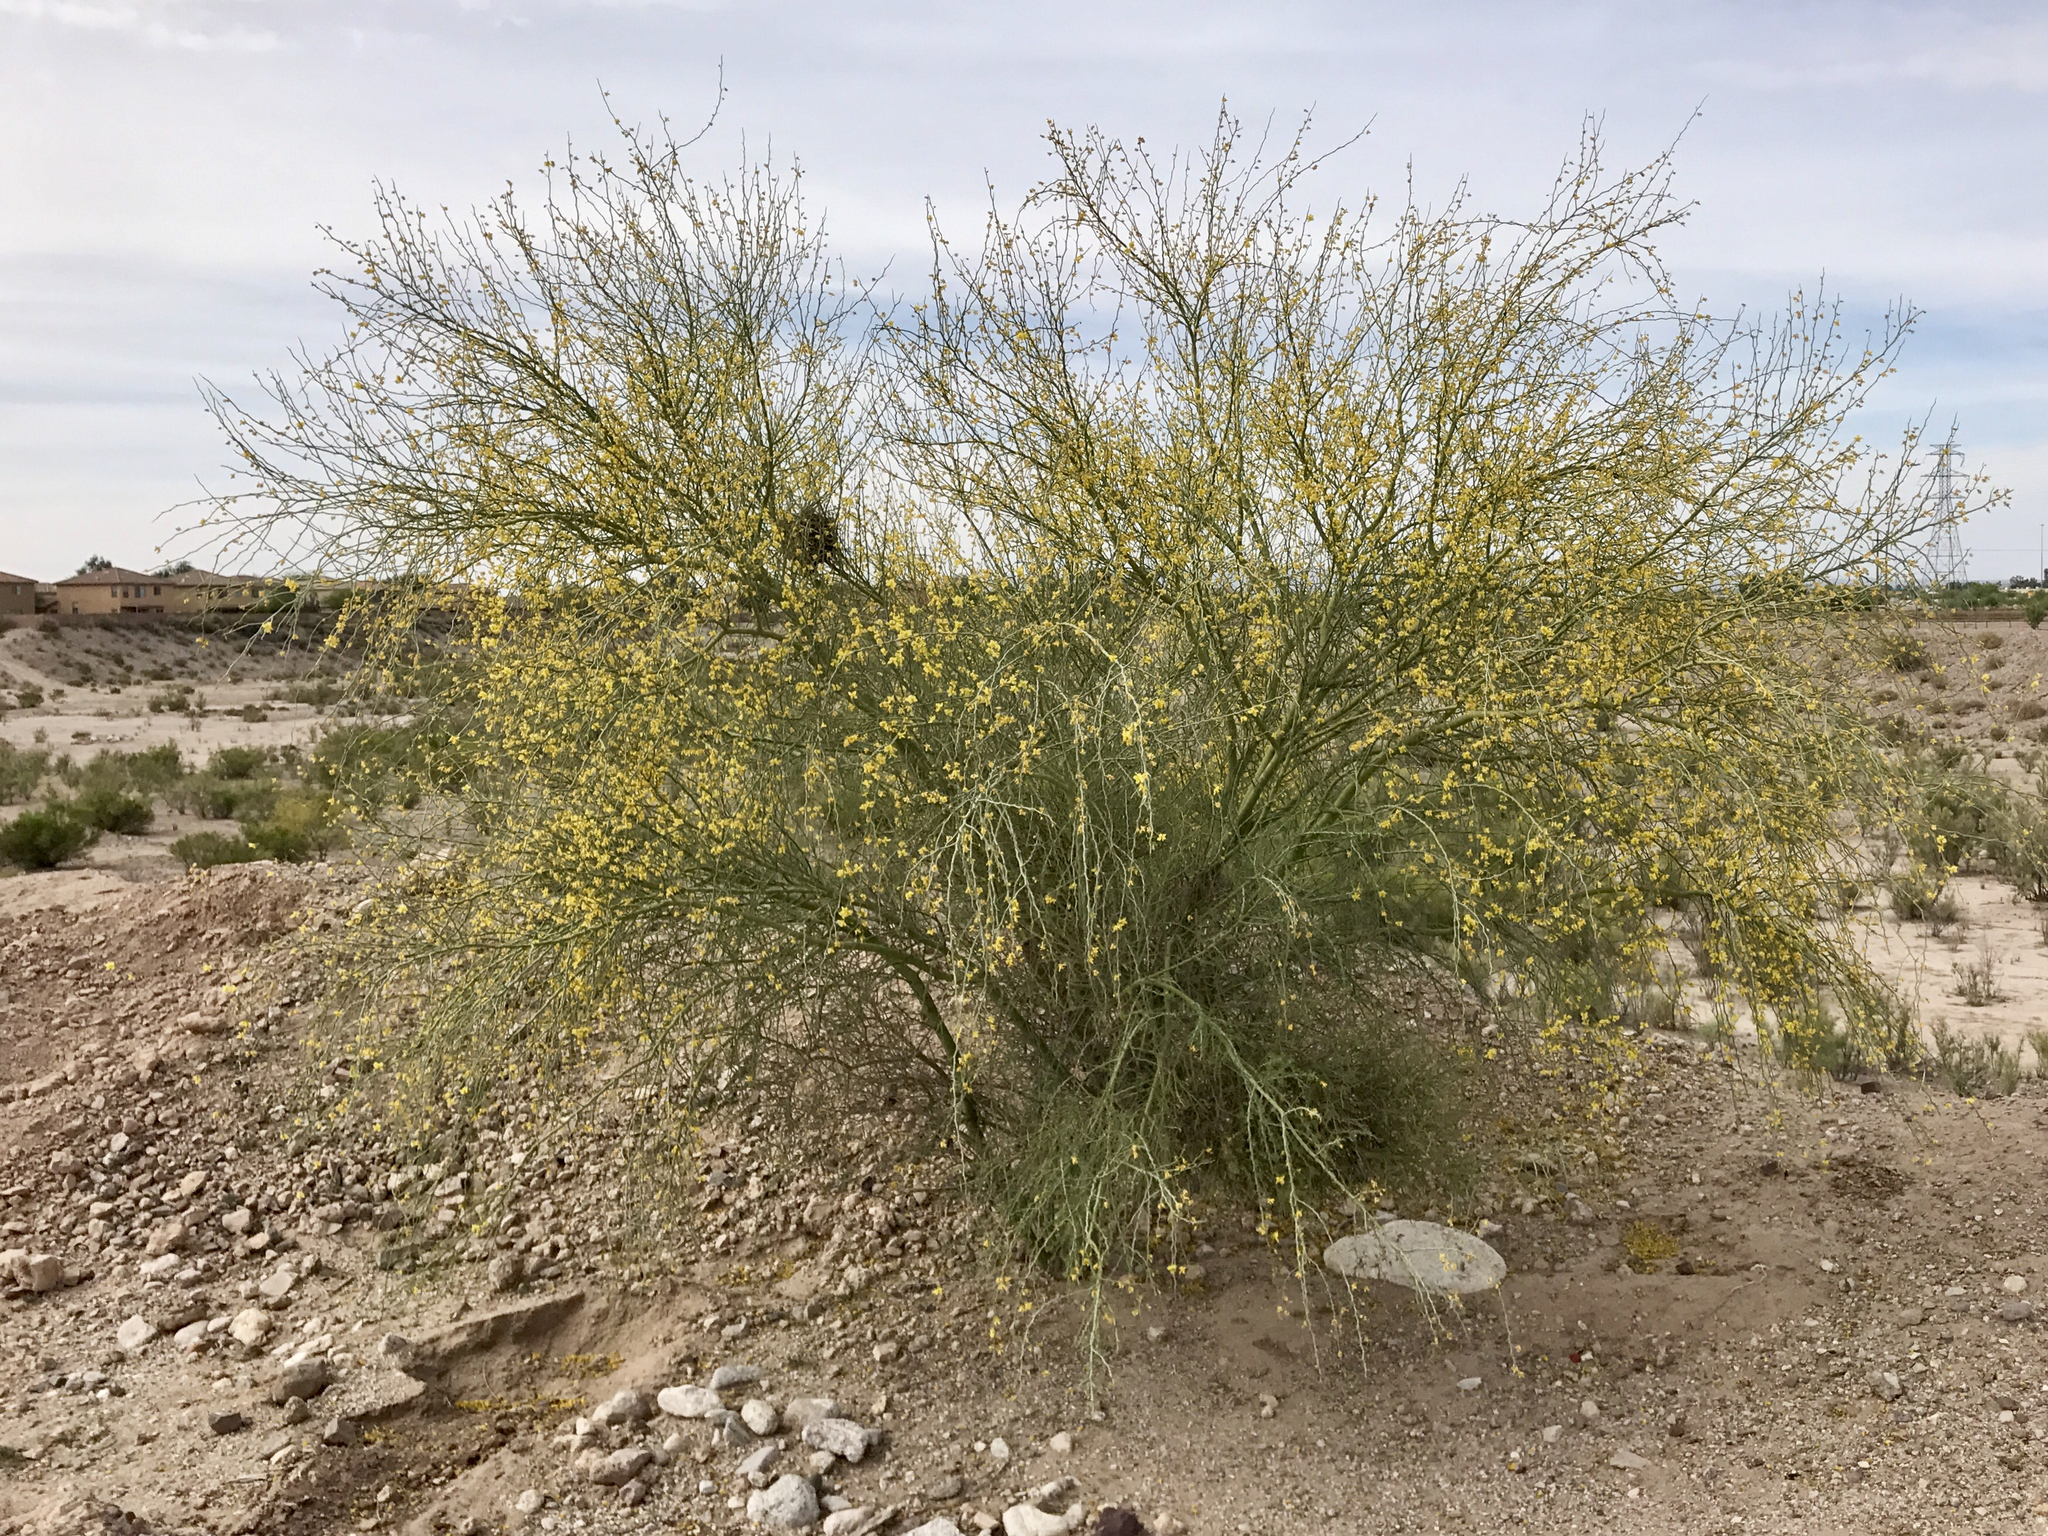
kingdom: Plantae
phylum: Tracheophyta
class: Magnoliopsida
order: Fabales
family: Fabaceae
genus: Parkinsonia
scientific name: Parkinsonia florida
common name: Blue paloverde
